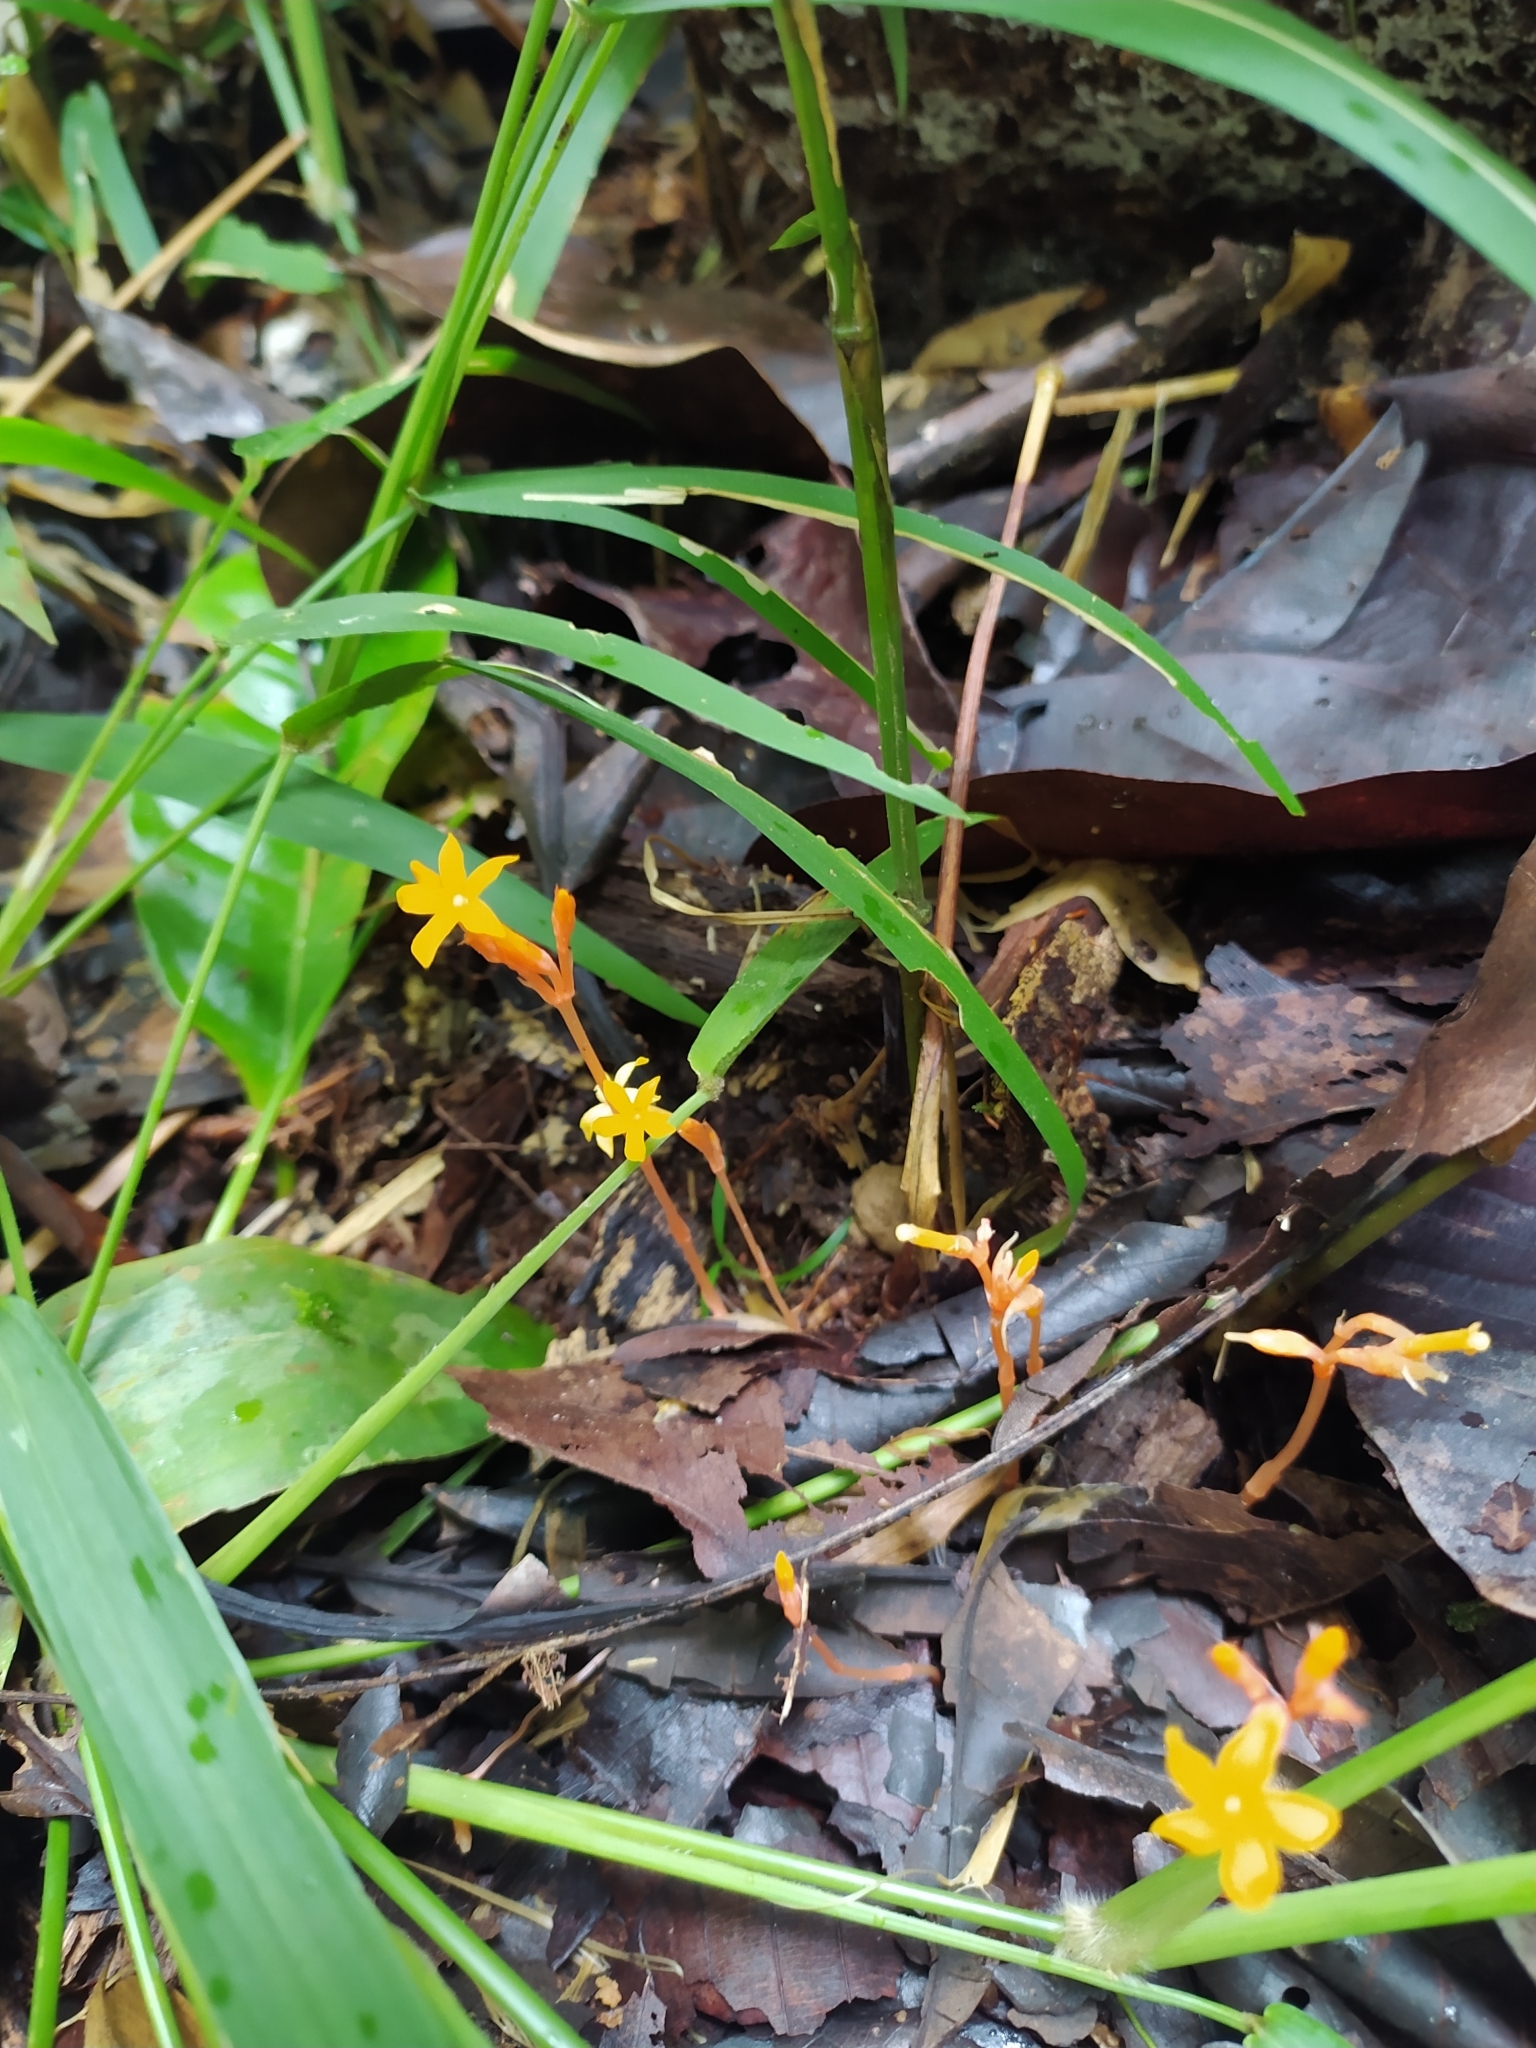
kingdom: Plantae
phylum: Tracheophyta
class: Magnoliopsida
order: Gentianales
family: Gentianaceae
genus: Voyria
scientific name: Voyria aurantiaca
